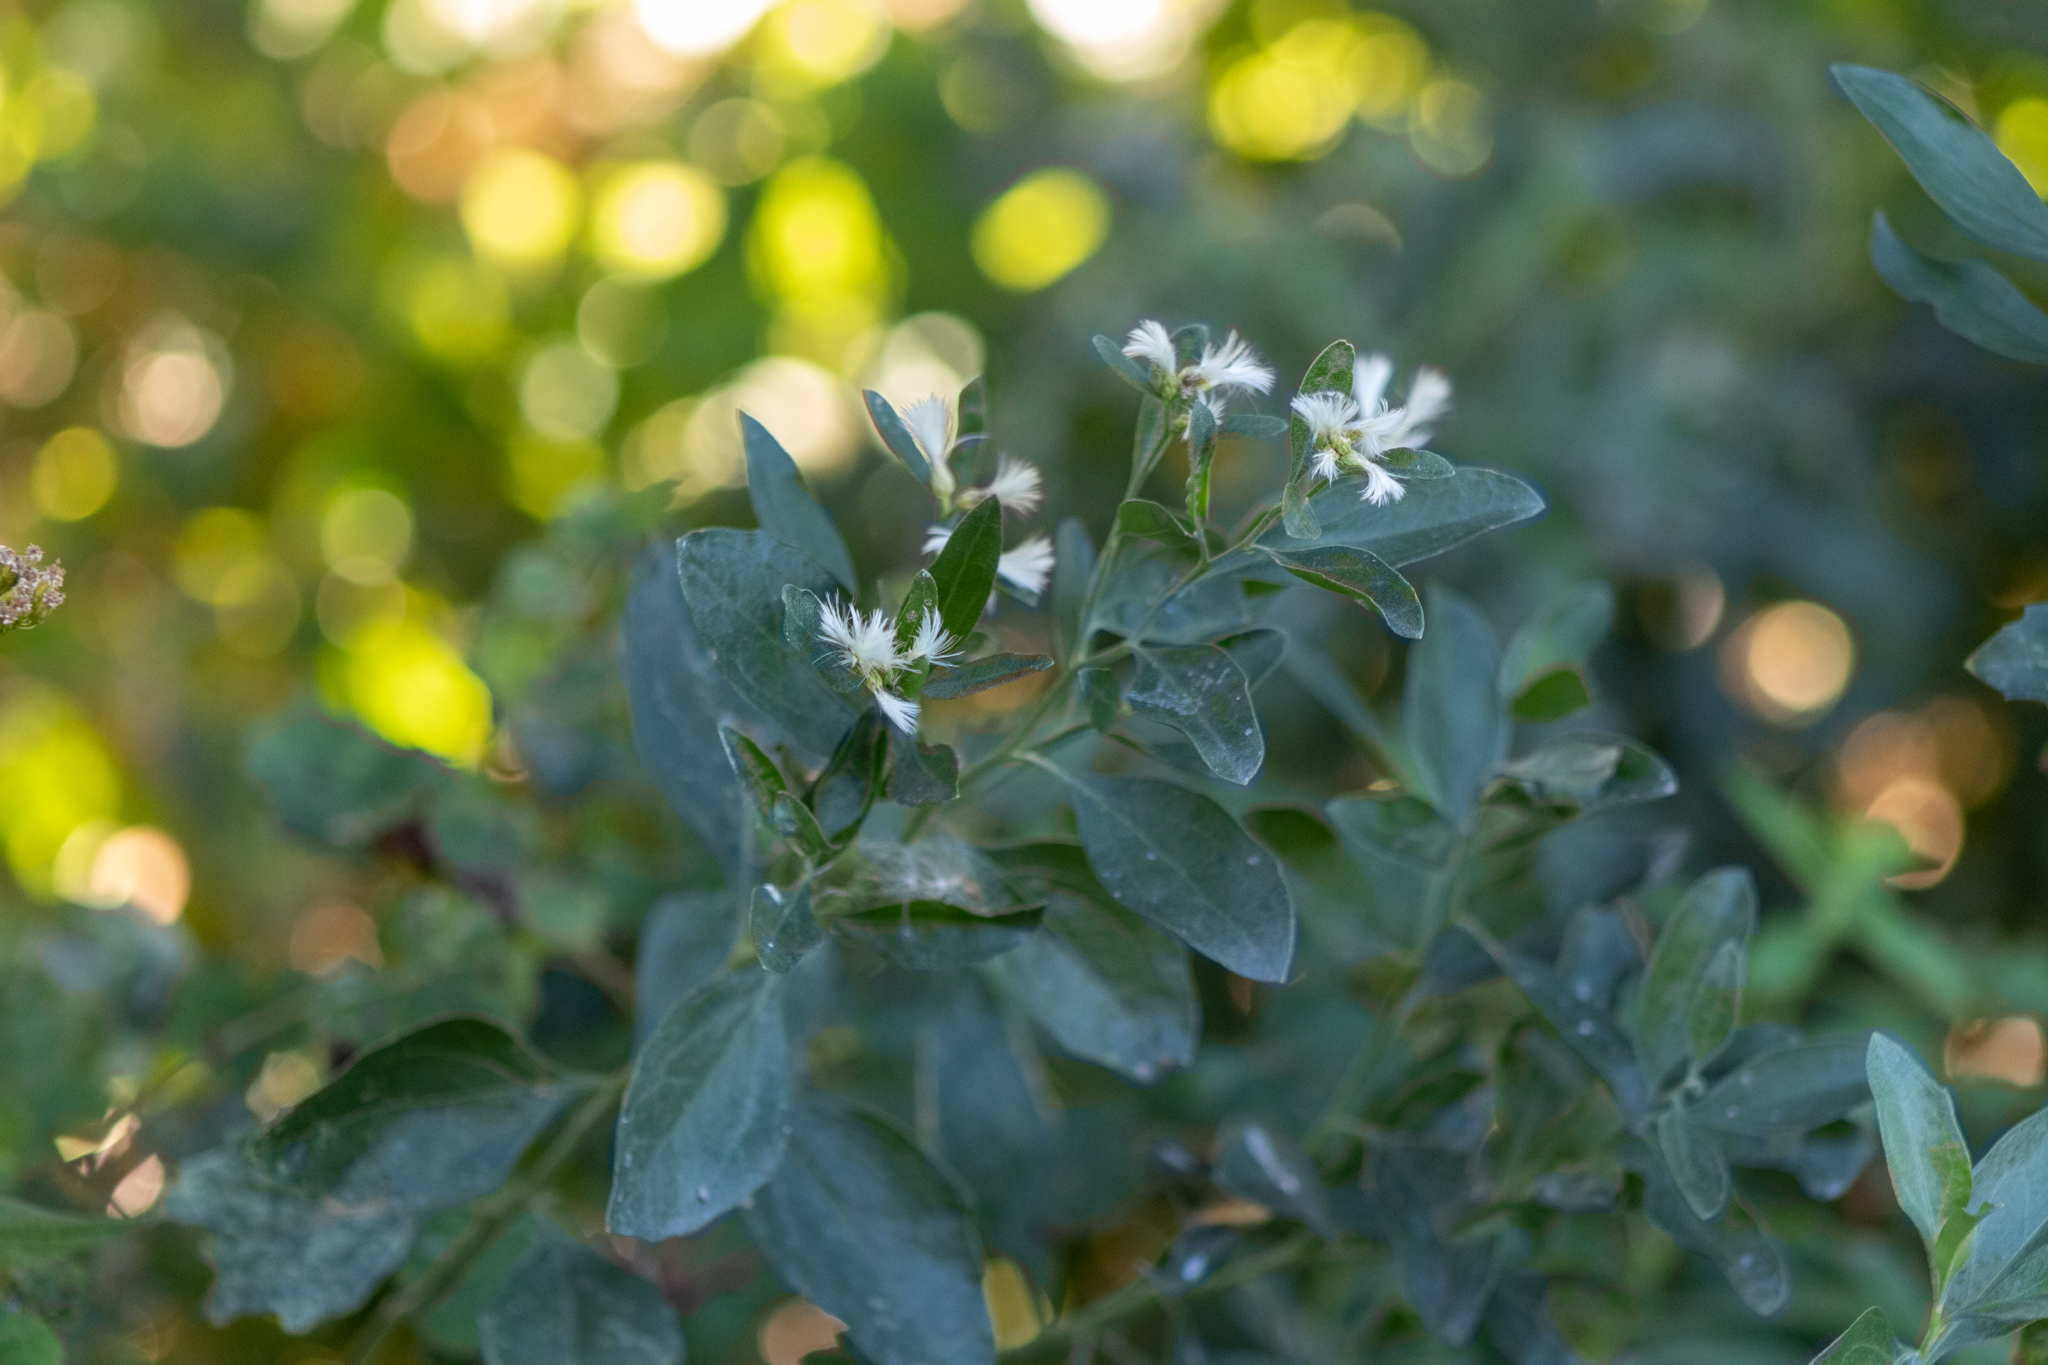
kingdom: Plantae
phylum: Tracheophyta
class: Magnoliopsida
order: Asterales
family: Asteraceae
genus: Baccharis
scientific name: Baccharis halimifolia
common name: Eastern baccharis
